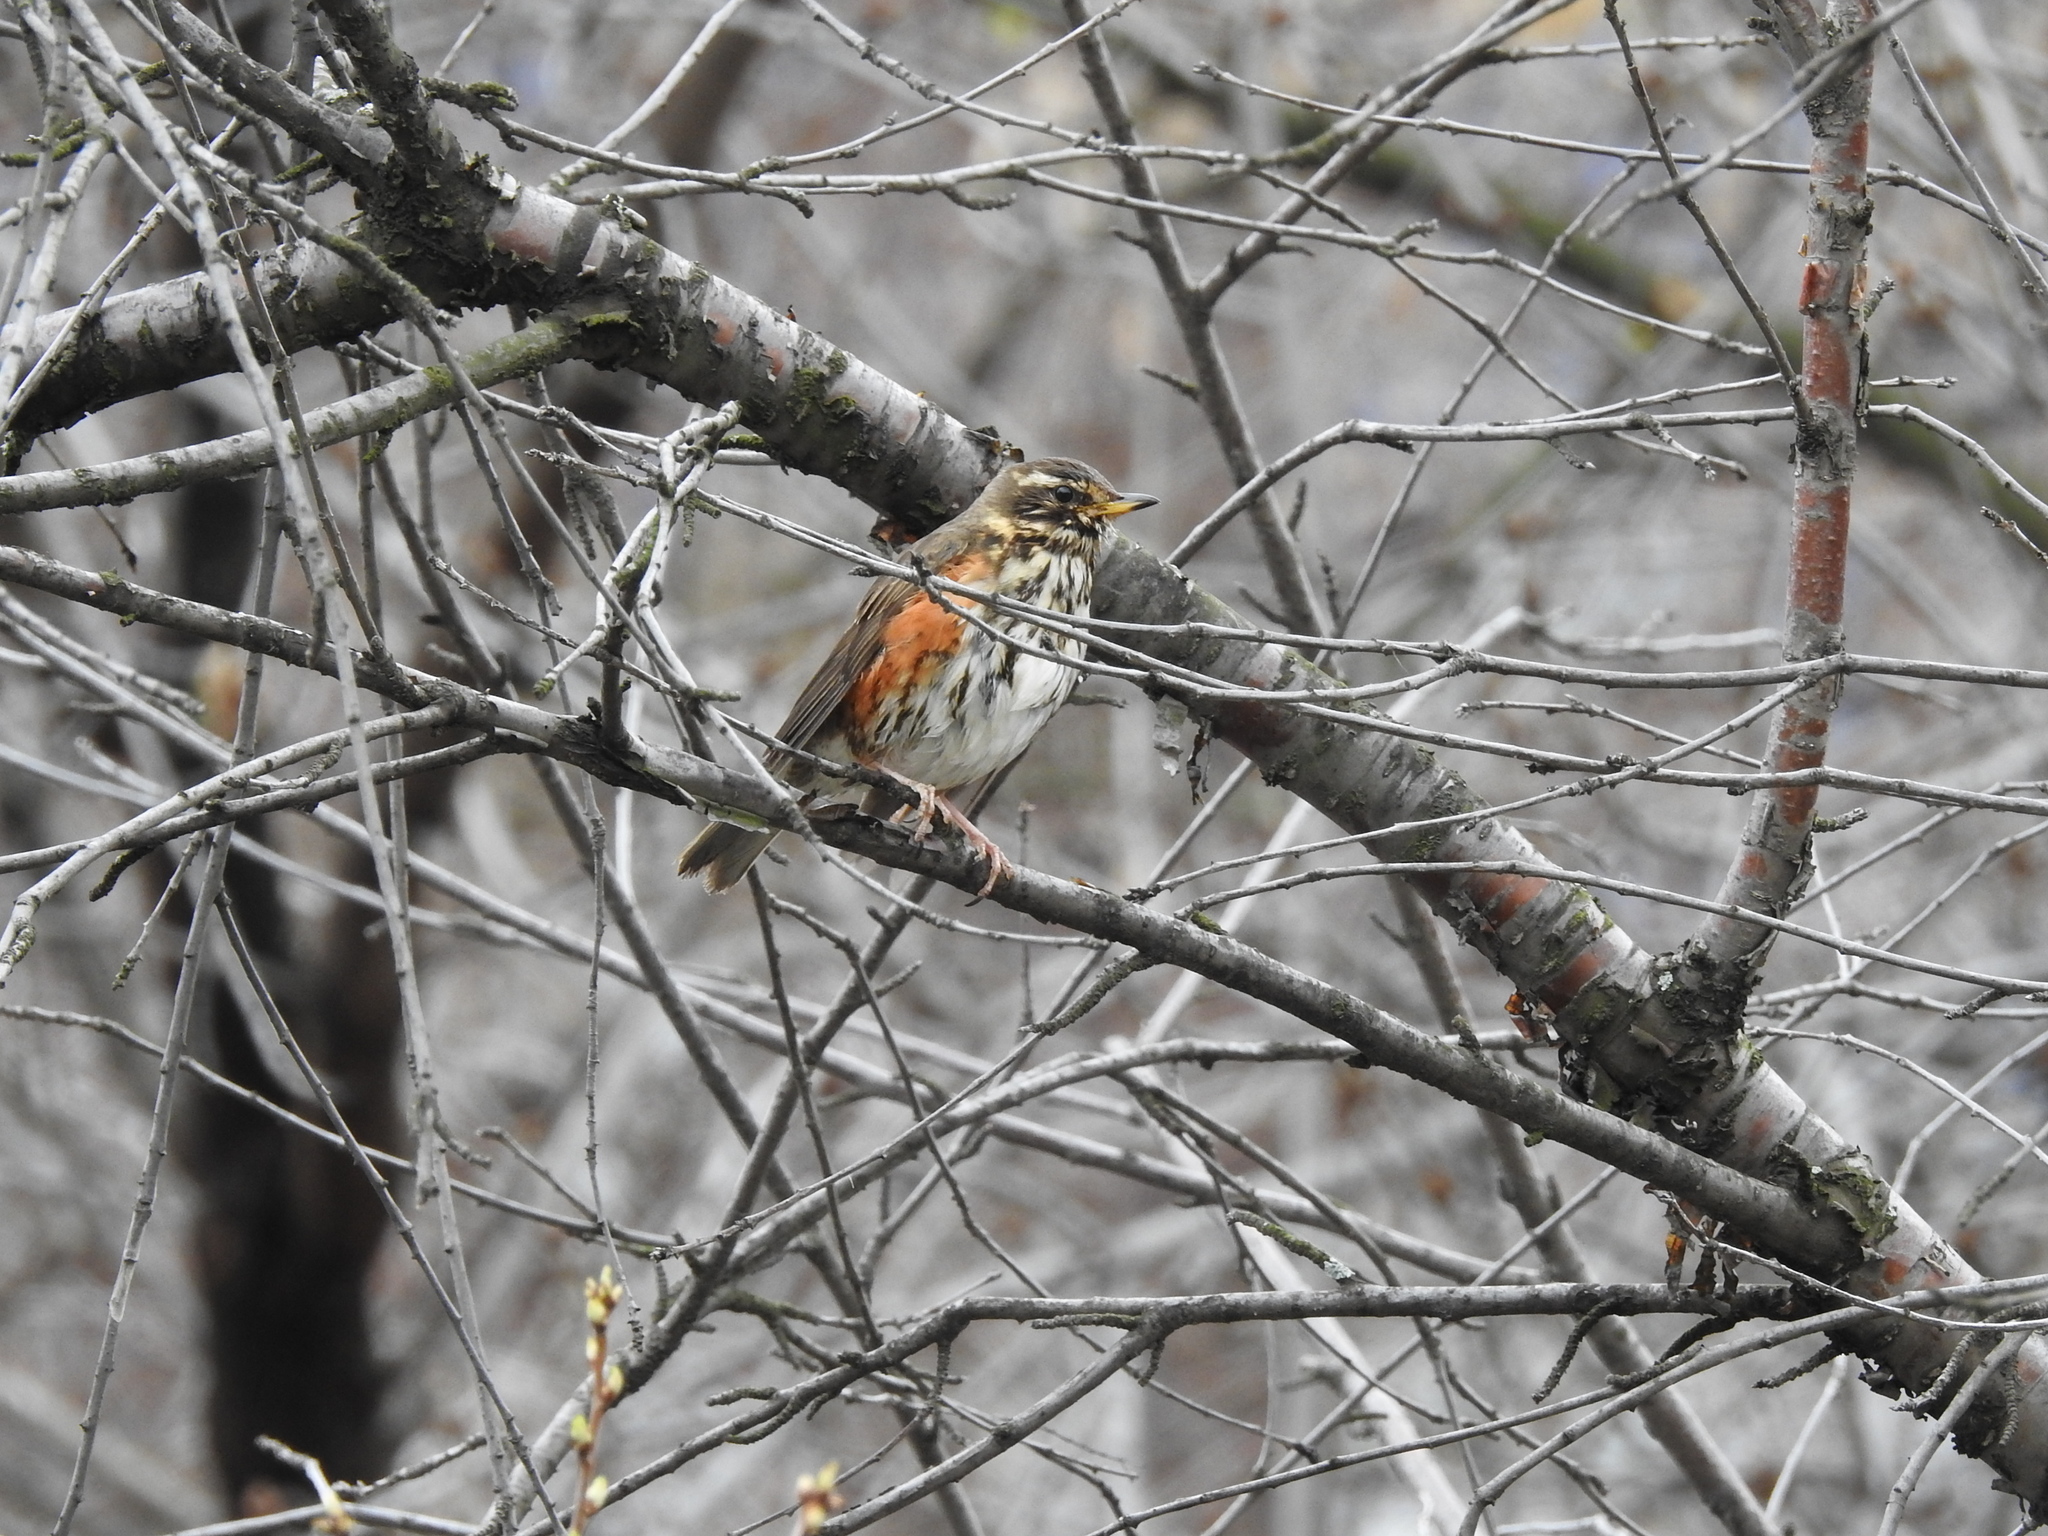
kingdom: Animalia
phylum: Chordata
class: Aves
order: Passeriformes
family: Turdidae
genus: Turdus
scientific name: Turdus iliacus
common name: Redwing
